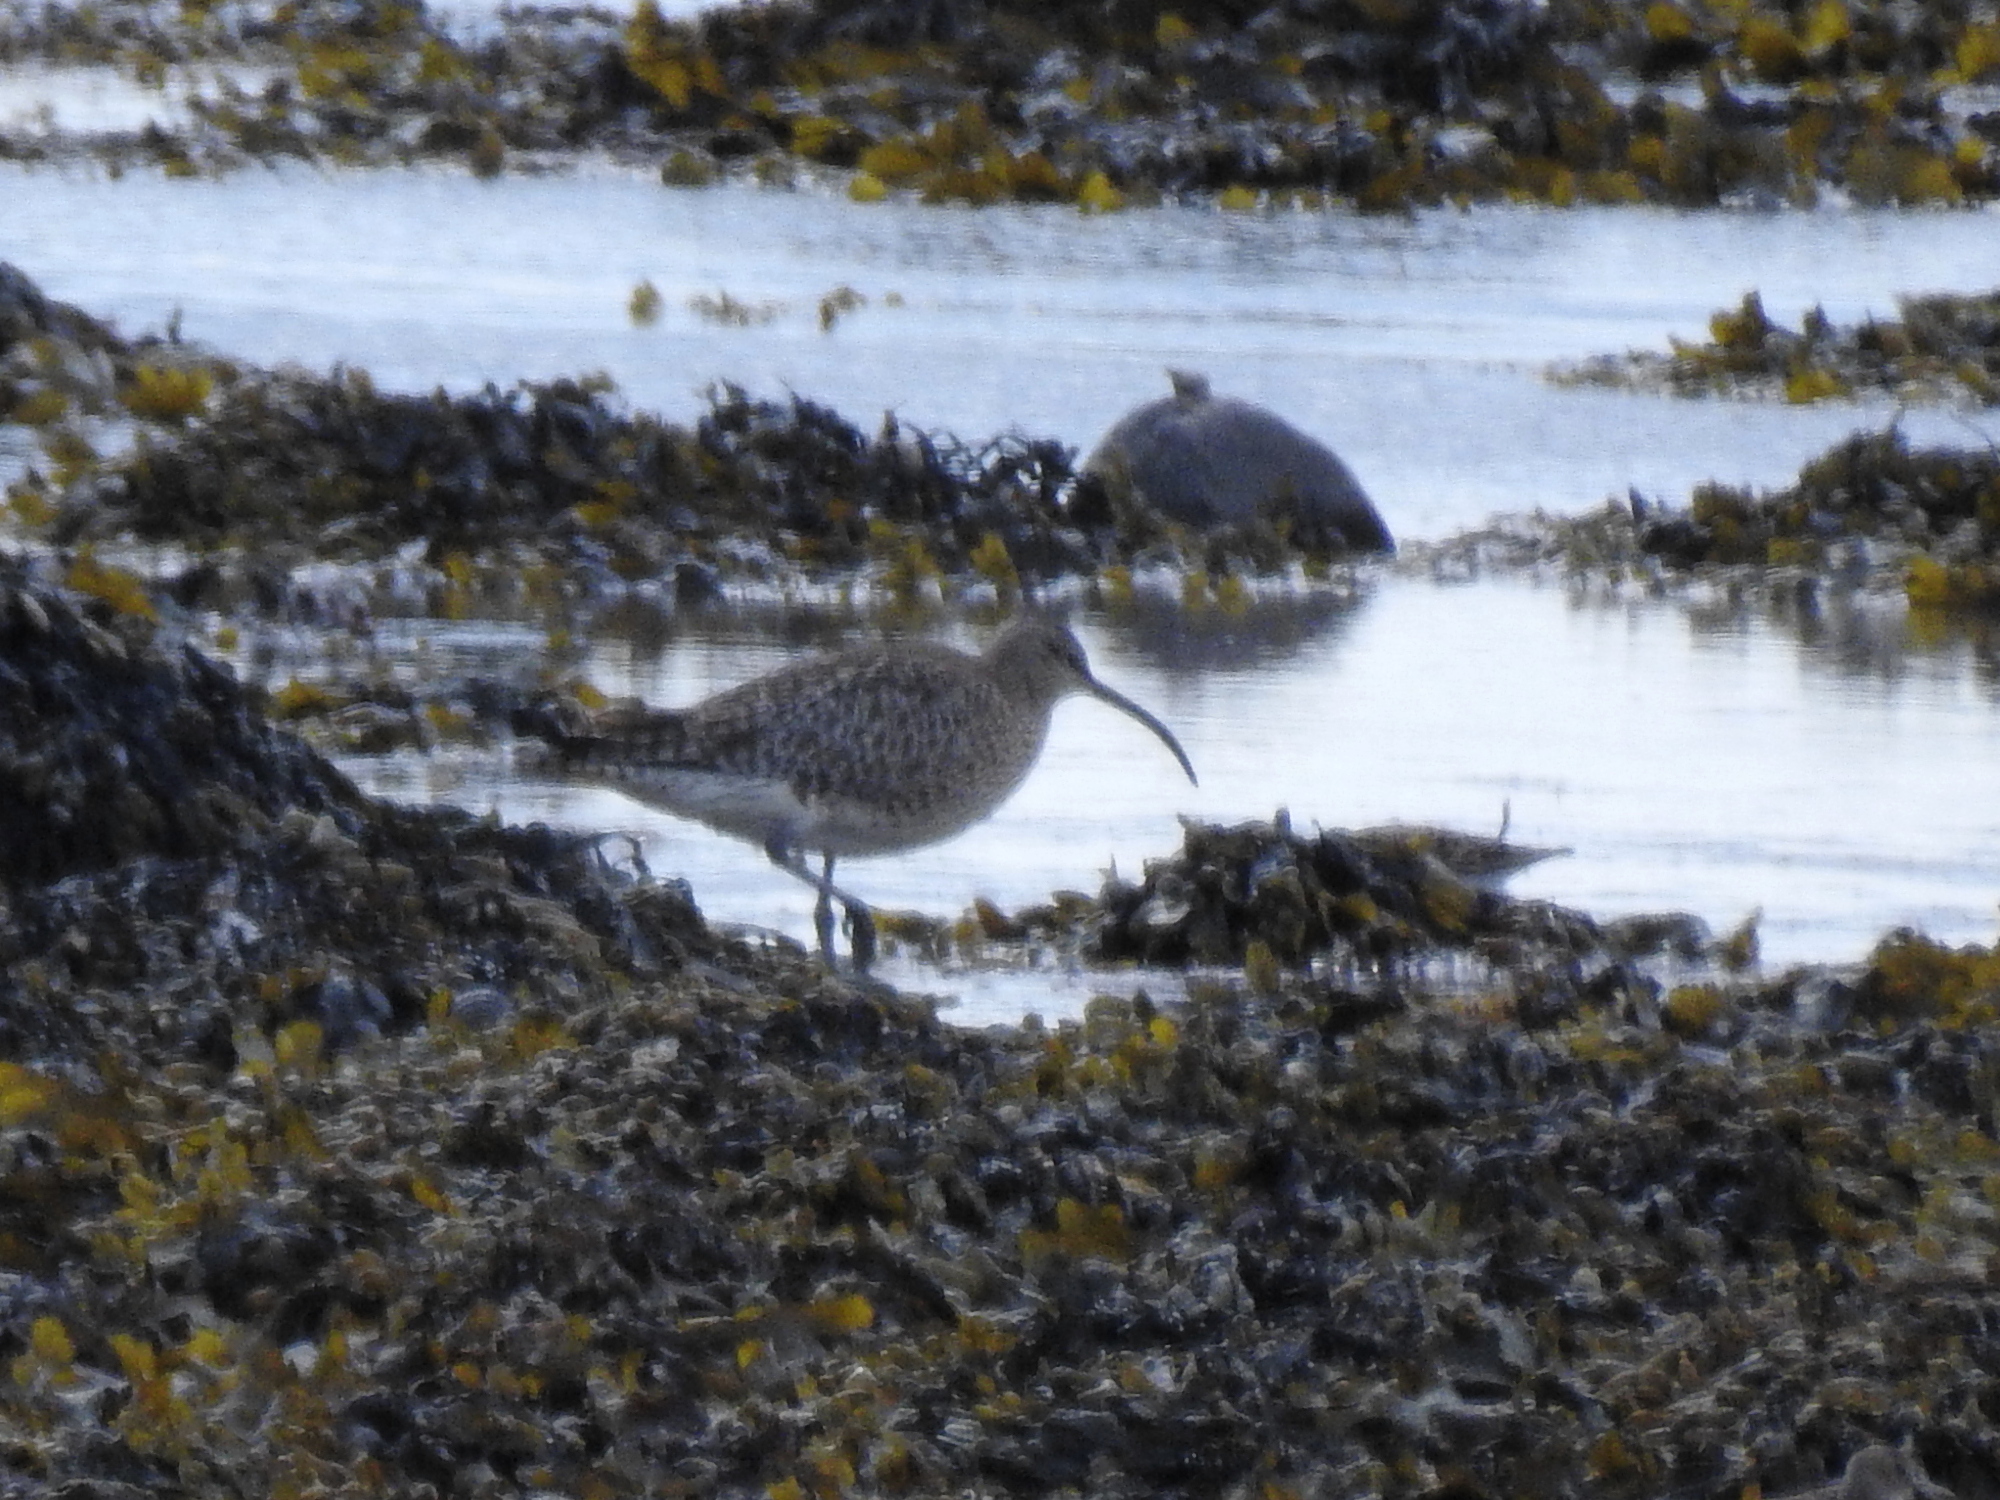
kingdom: Animalia
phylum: Chordata
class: Aves
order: Charadriiformes
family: Scolopacidae
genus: Numenius
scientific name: Numenius phaeopus
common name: Whimbrel
